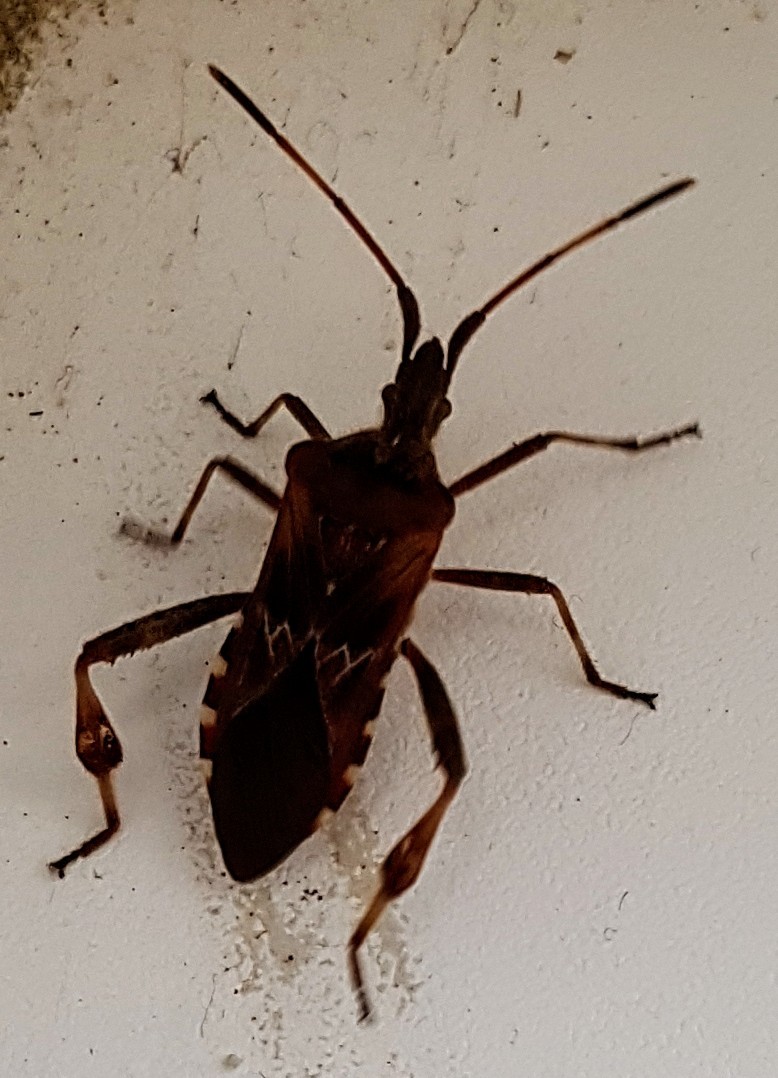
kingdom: Animalia
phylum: Arthropoda
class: Insecta
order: Hemiptera
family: Coreidae
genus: Leptoglossus
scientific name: Leptoglossus occidentalis
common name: Western conifer-seed bug
